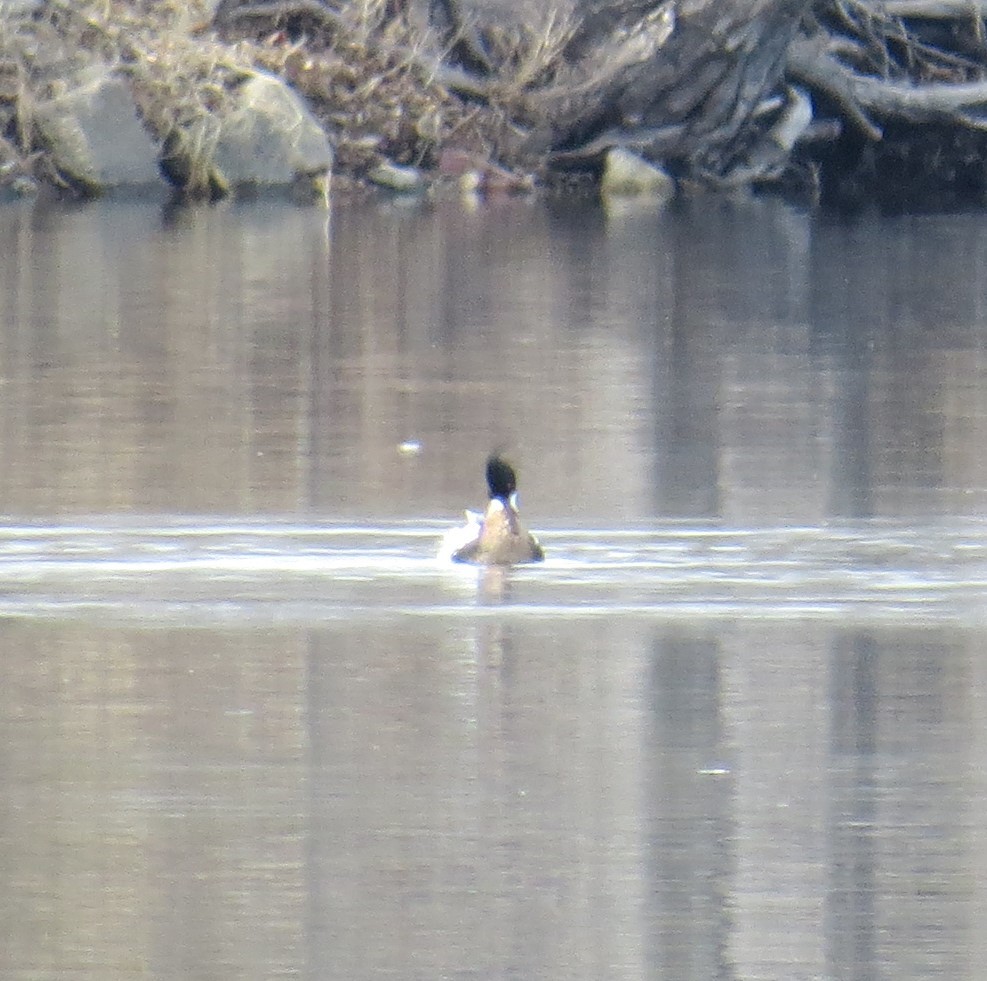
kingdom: Animalia
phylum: Chordata
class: Aves
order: Anseriformes
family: Anatidae
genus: Mergus
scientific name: Mergus serrator
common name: Red-breasted merganser
